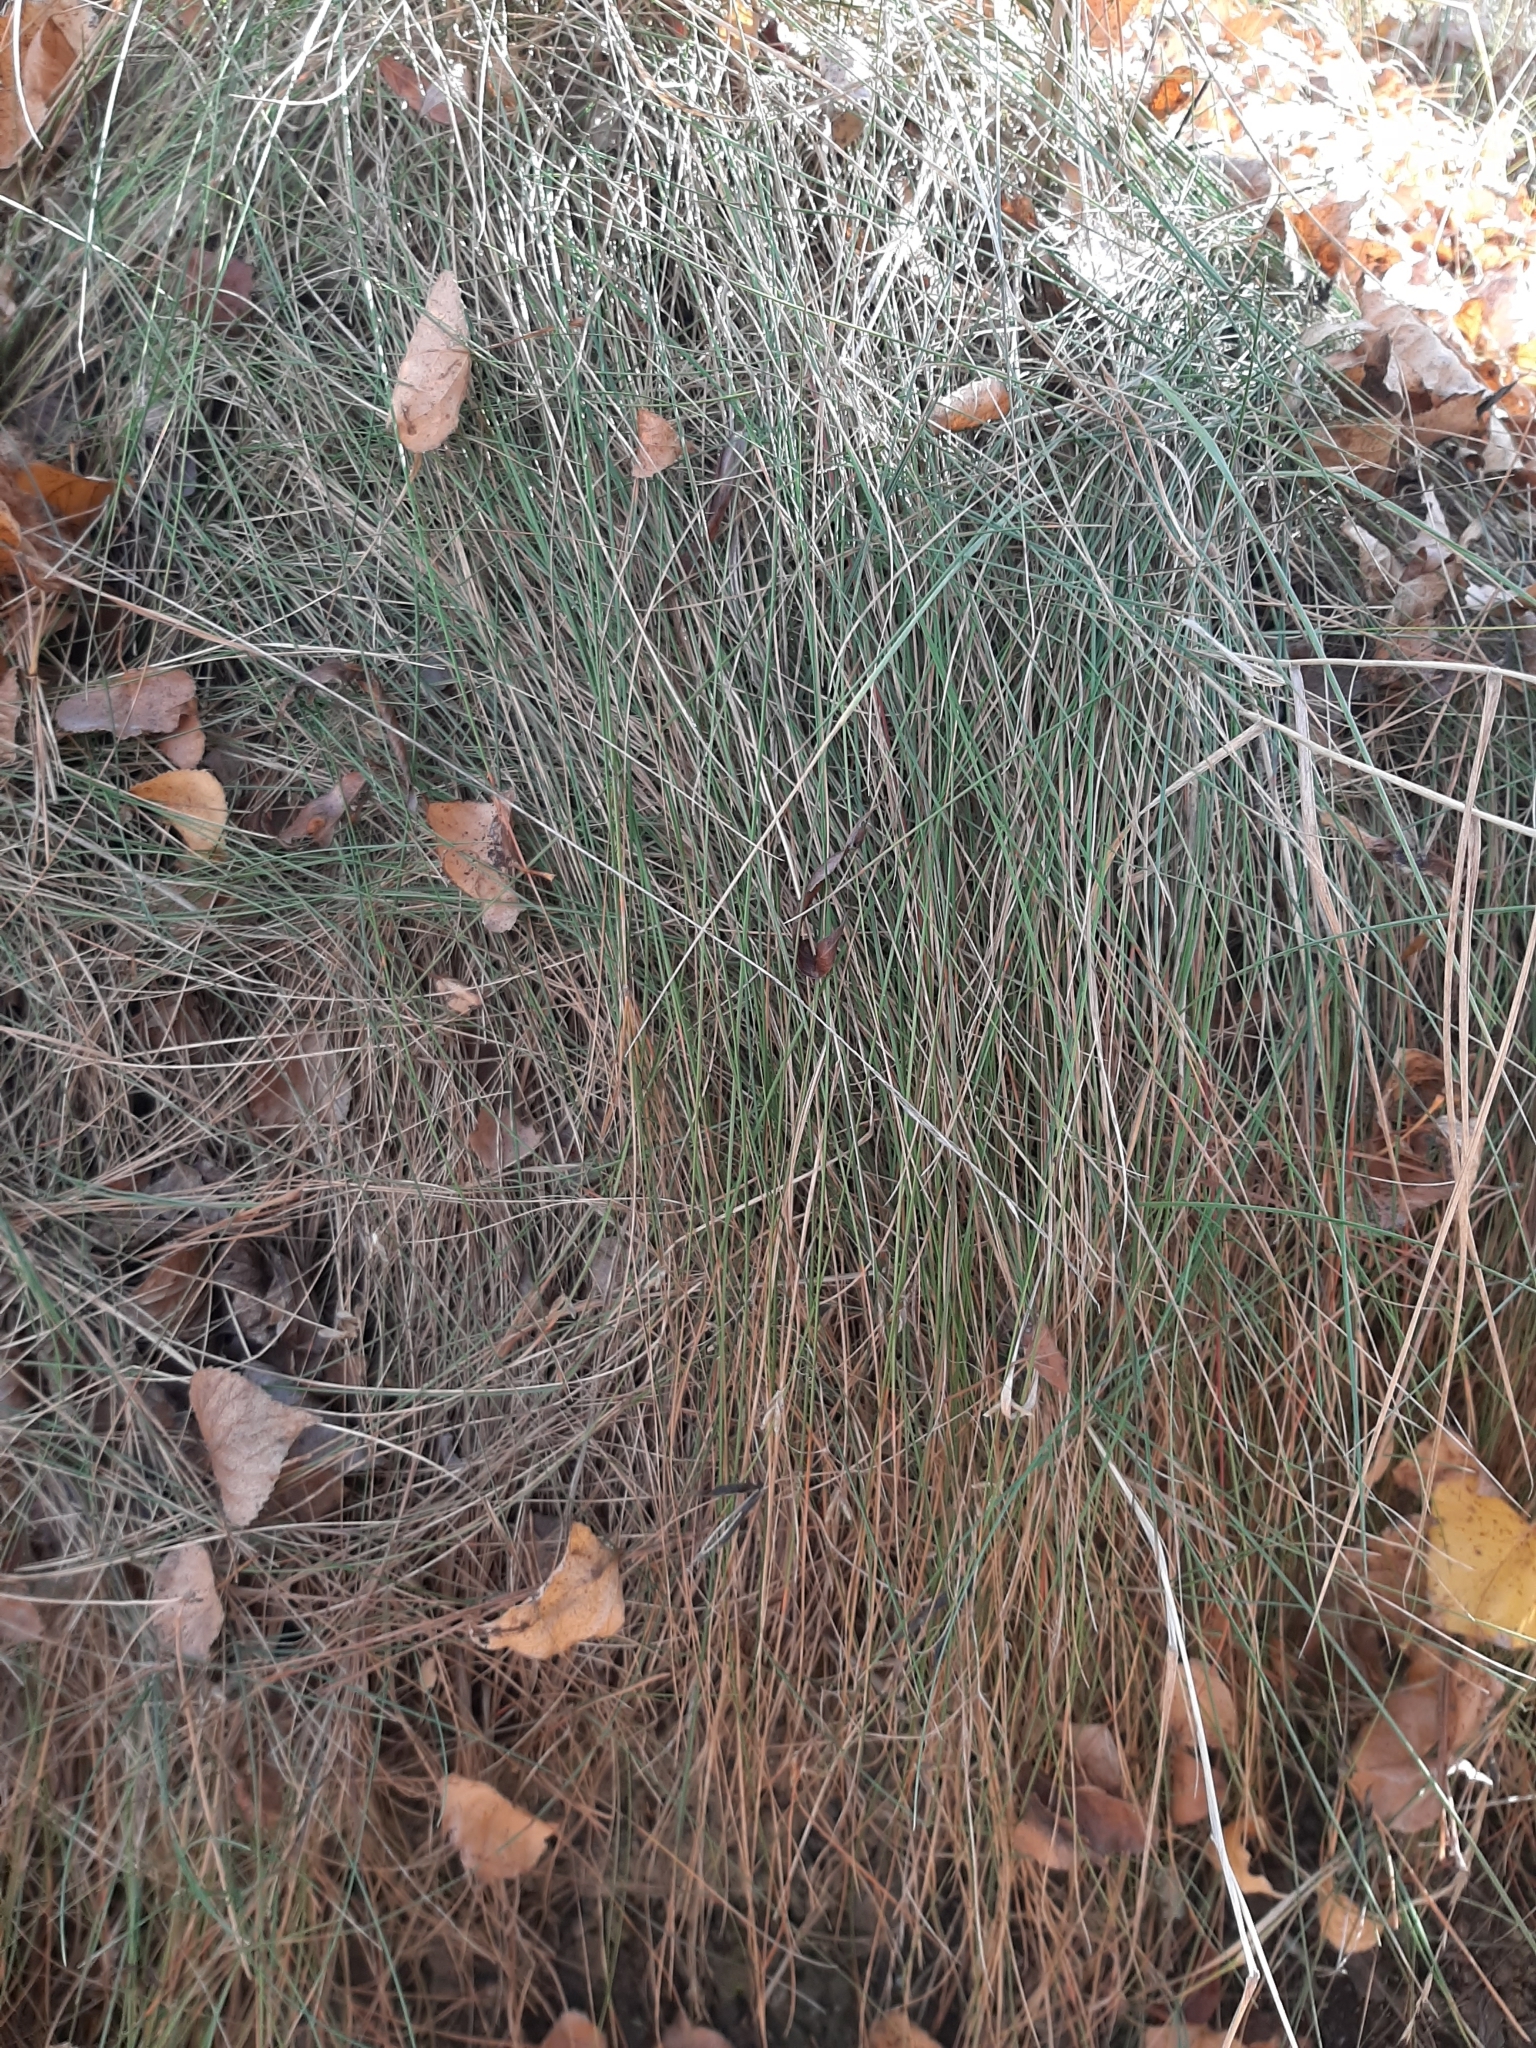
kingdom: Plantae
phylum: Tracheophyta
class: Liliopsida
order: Poales
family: Poaceae
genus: Festuca
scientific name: Festuca rubra
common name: Red fescue
